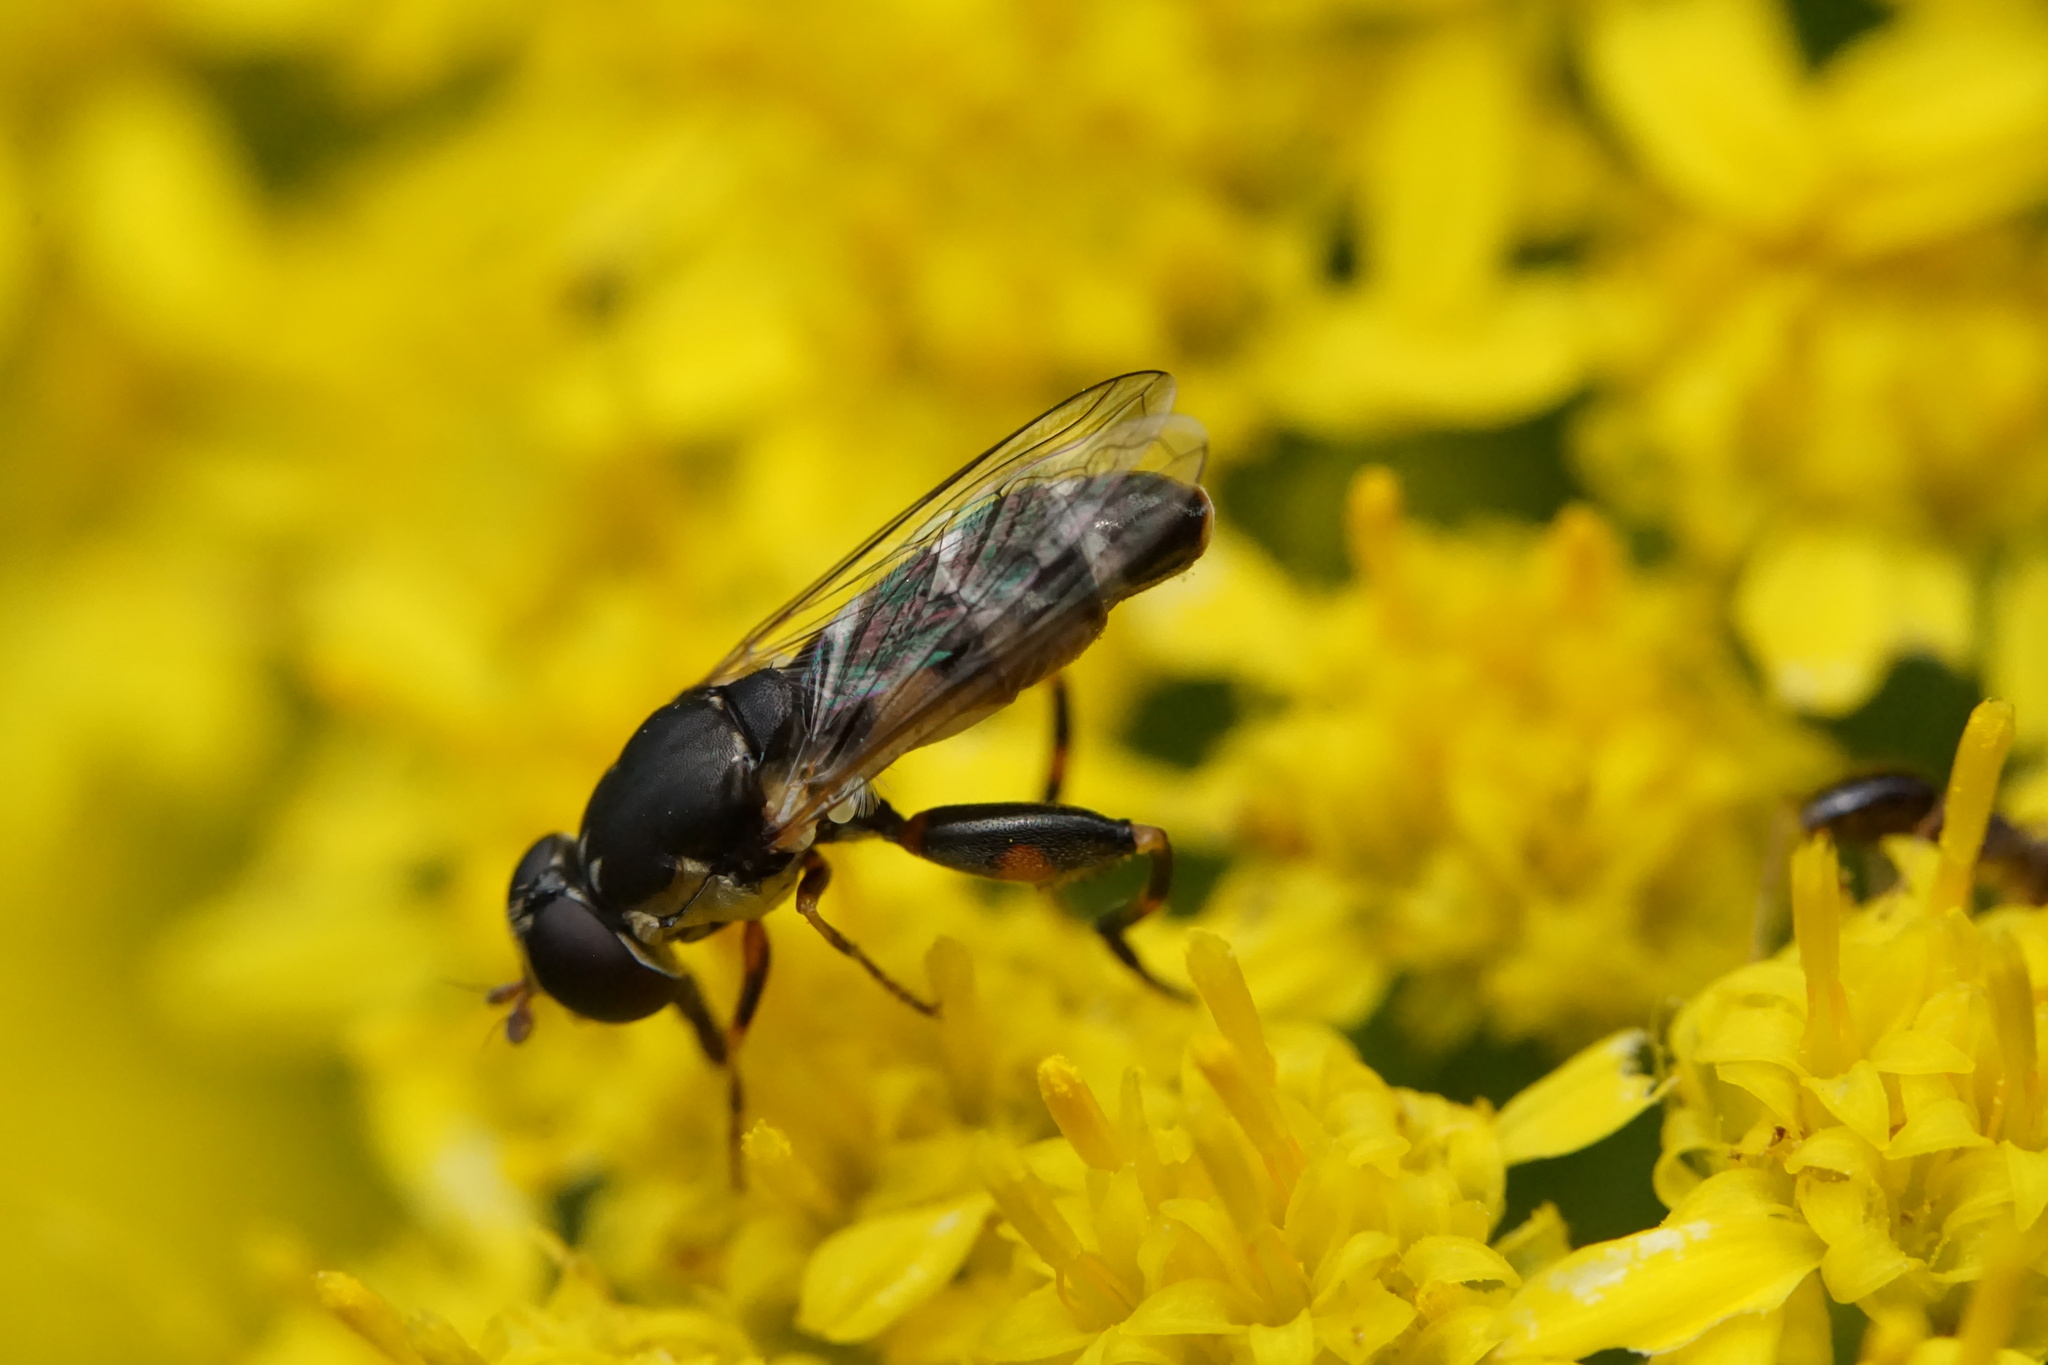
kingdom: Animalia
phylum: Arthropoda
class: Insecta
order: Diptera
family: Syrphidae
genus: Syritta
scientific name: Syritta pipiens
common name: Hover fly
